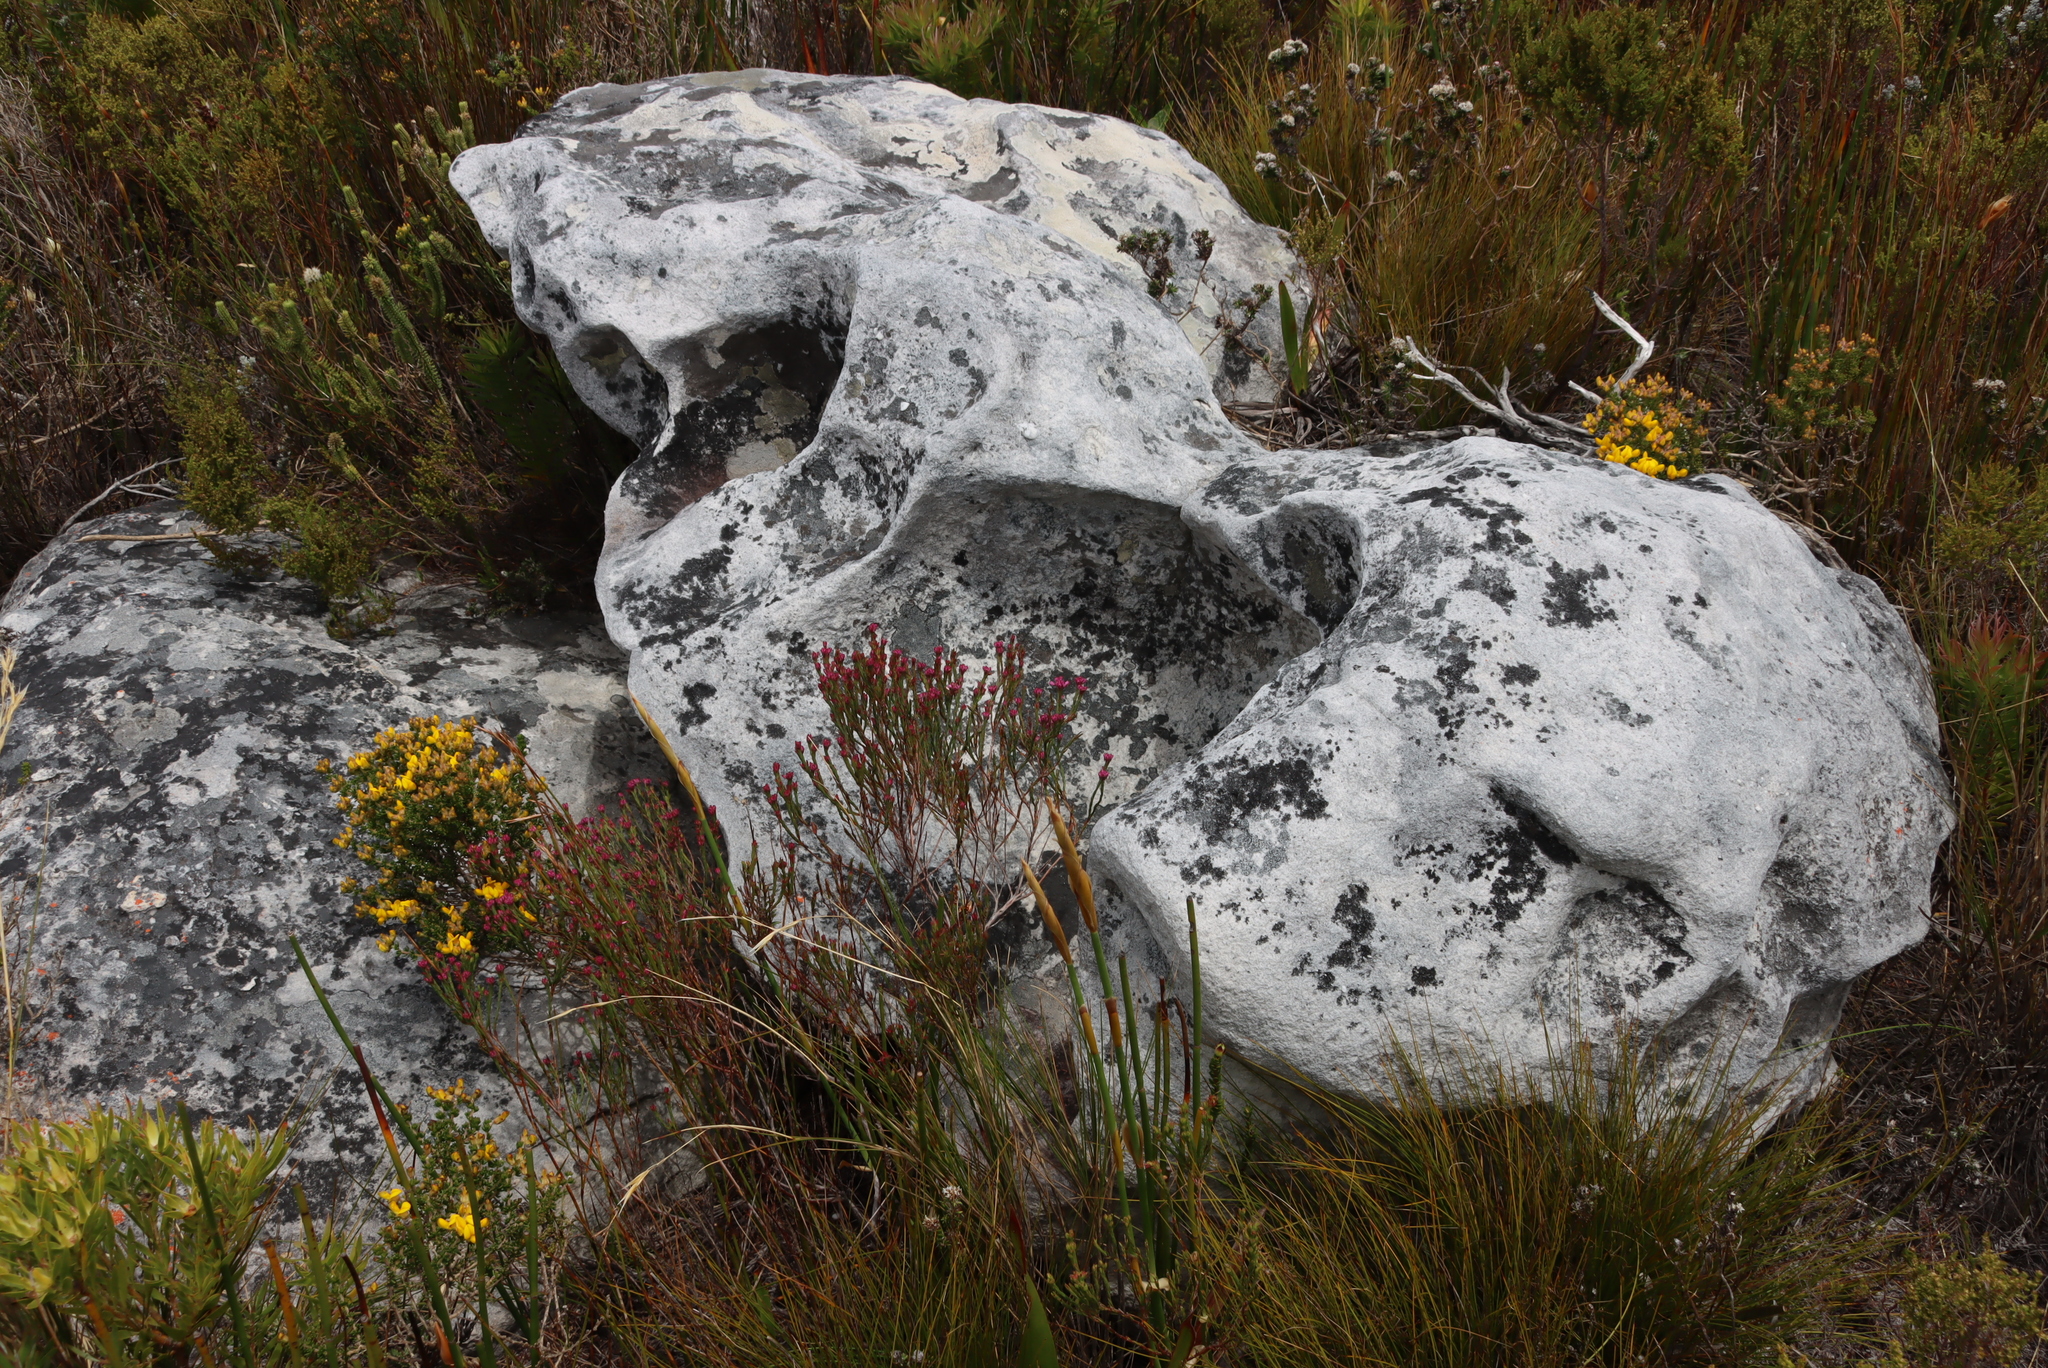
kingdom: Plantae
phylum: Tracheophyta
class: Magnoliopsida
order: Ericales
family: Ericaceae
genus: Erica
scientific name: Erica articularis
